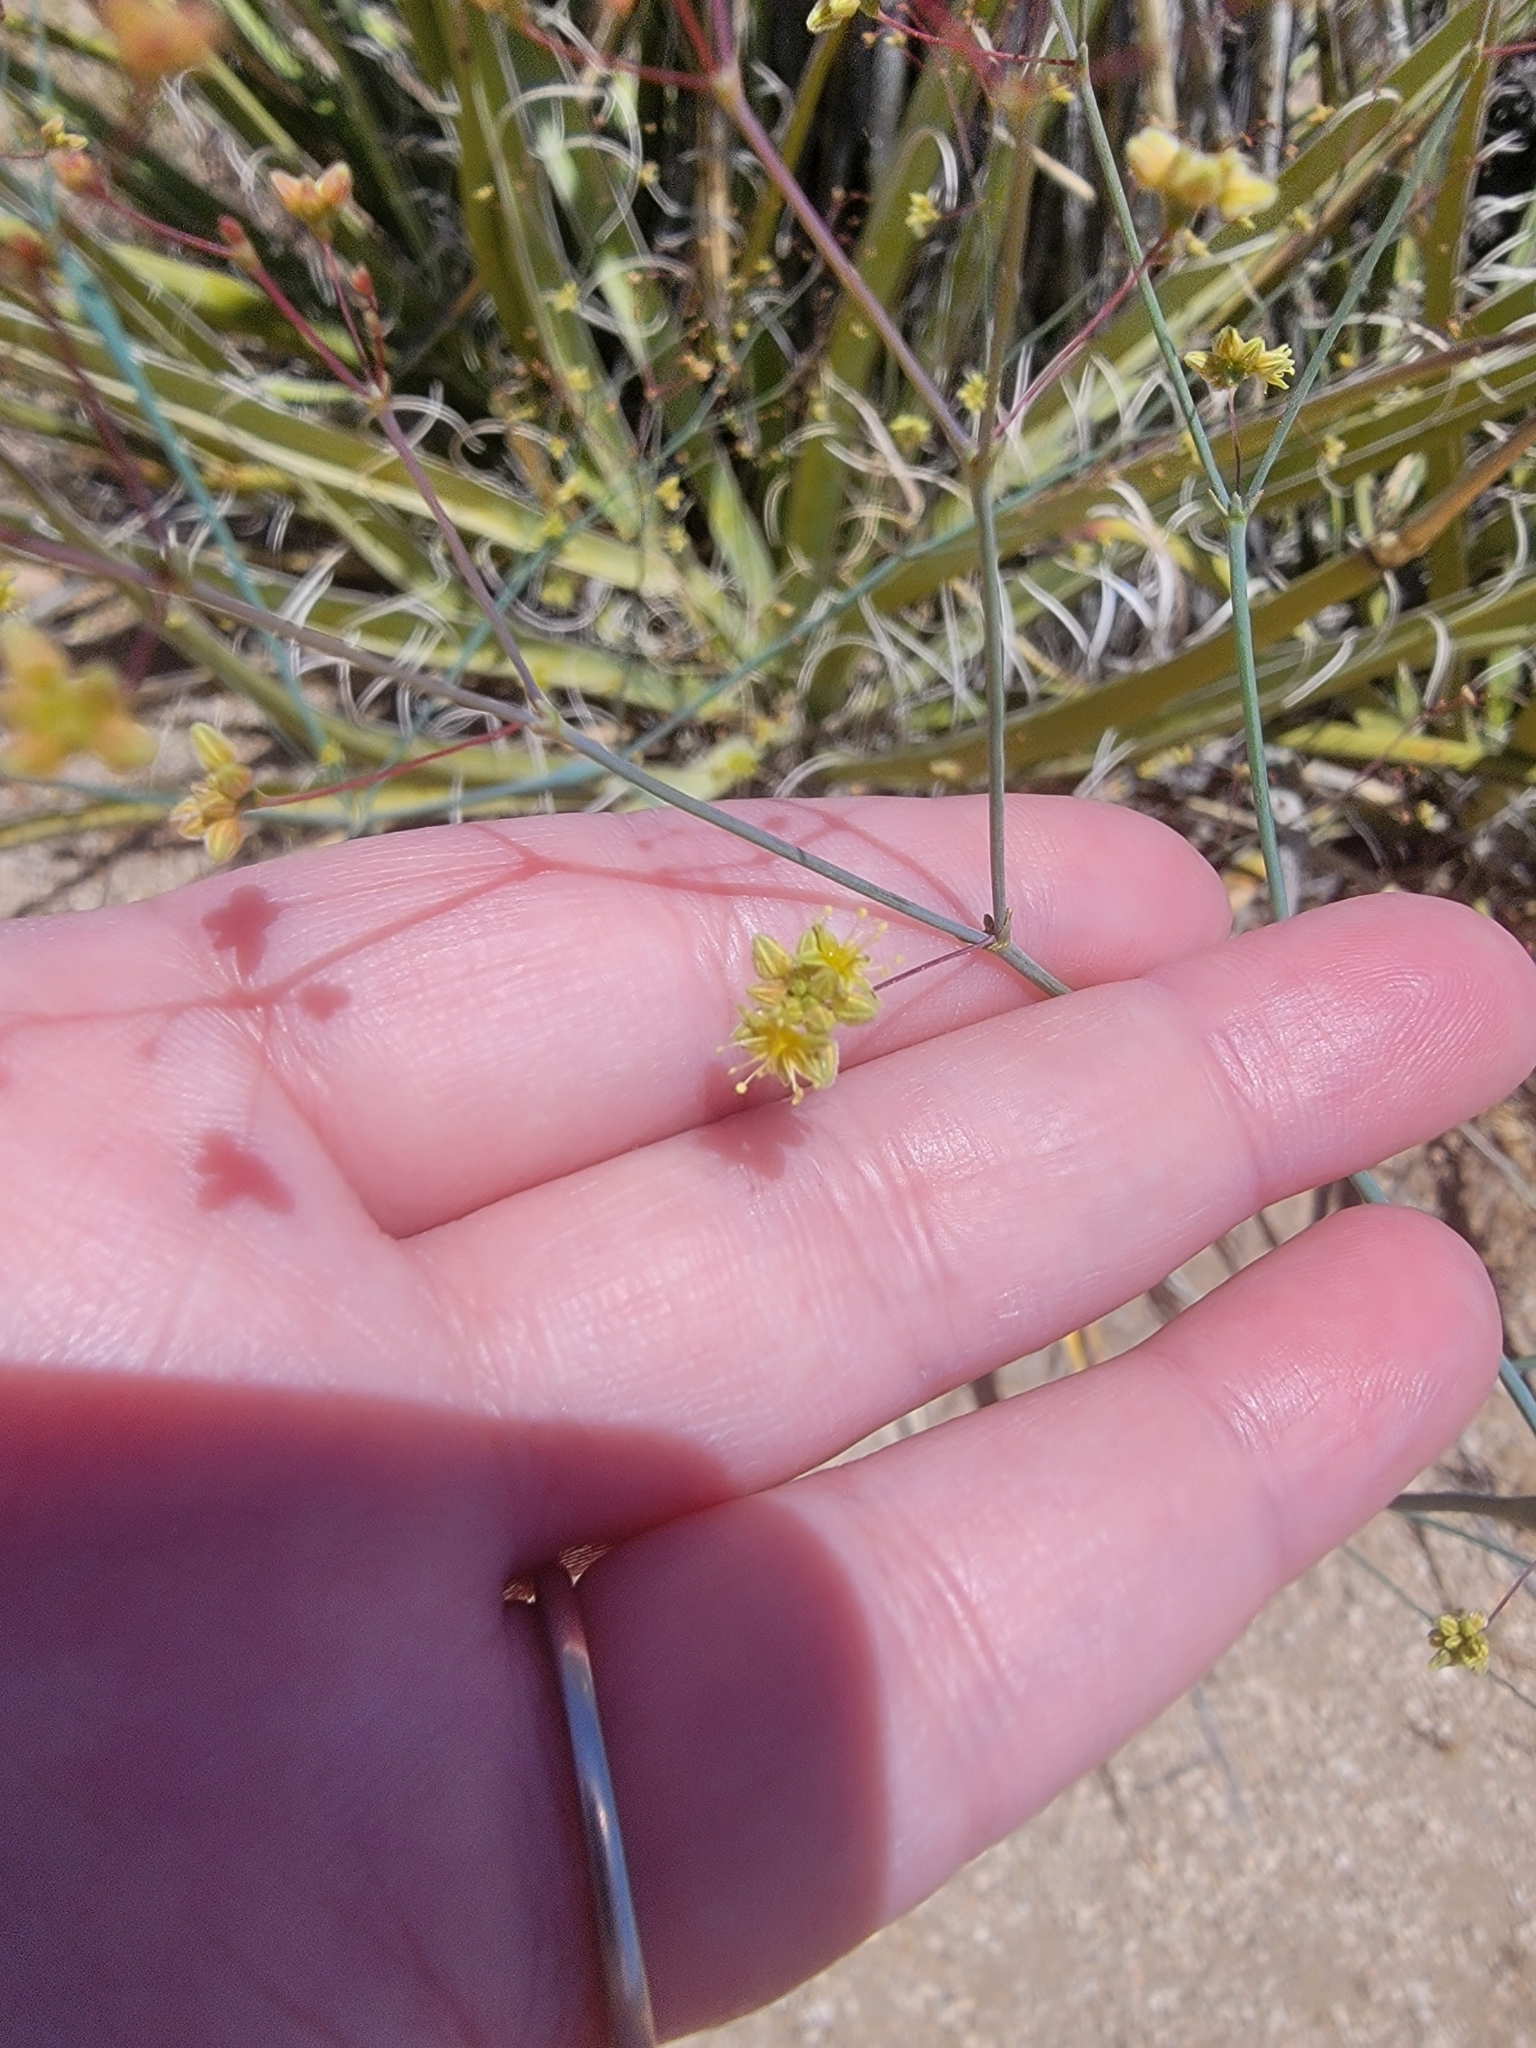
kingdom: Plantae
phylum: Tracheophyta
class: Magnoliopsida
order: Caryophyllales
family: Polygonaceae
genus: Eriogonum
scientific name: Eriogonum inflatum
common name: Desert trumpet
